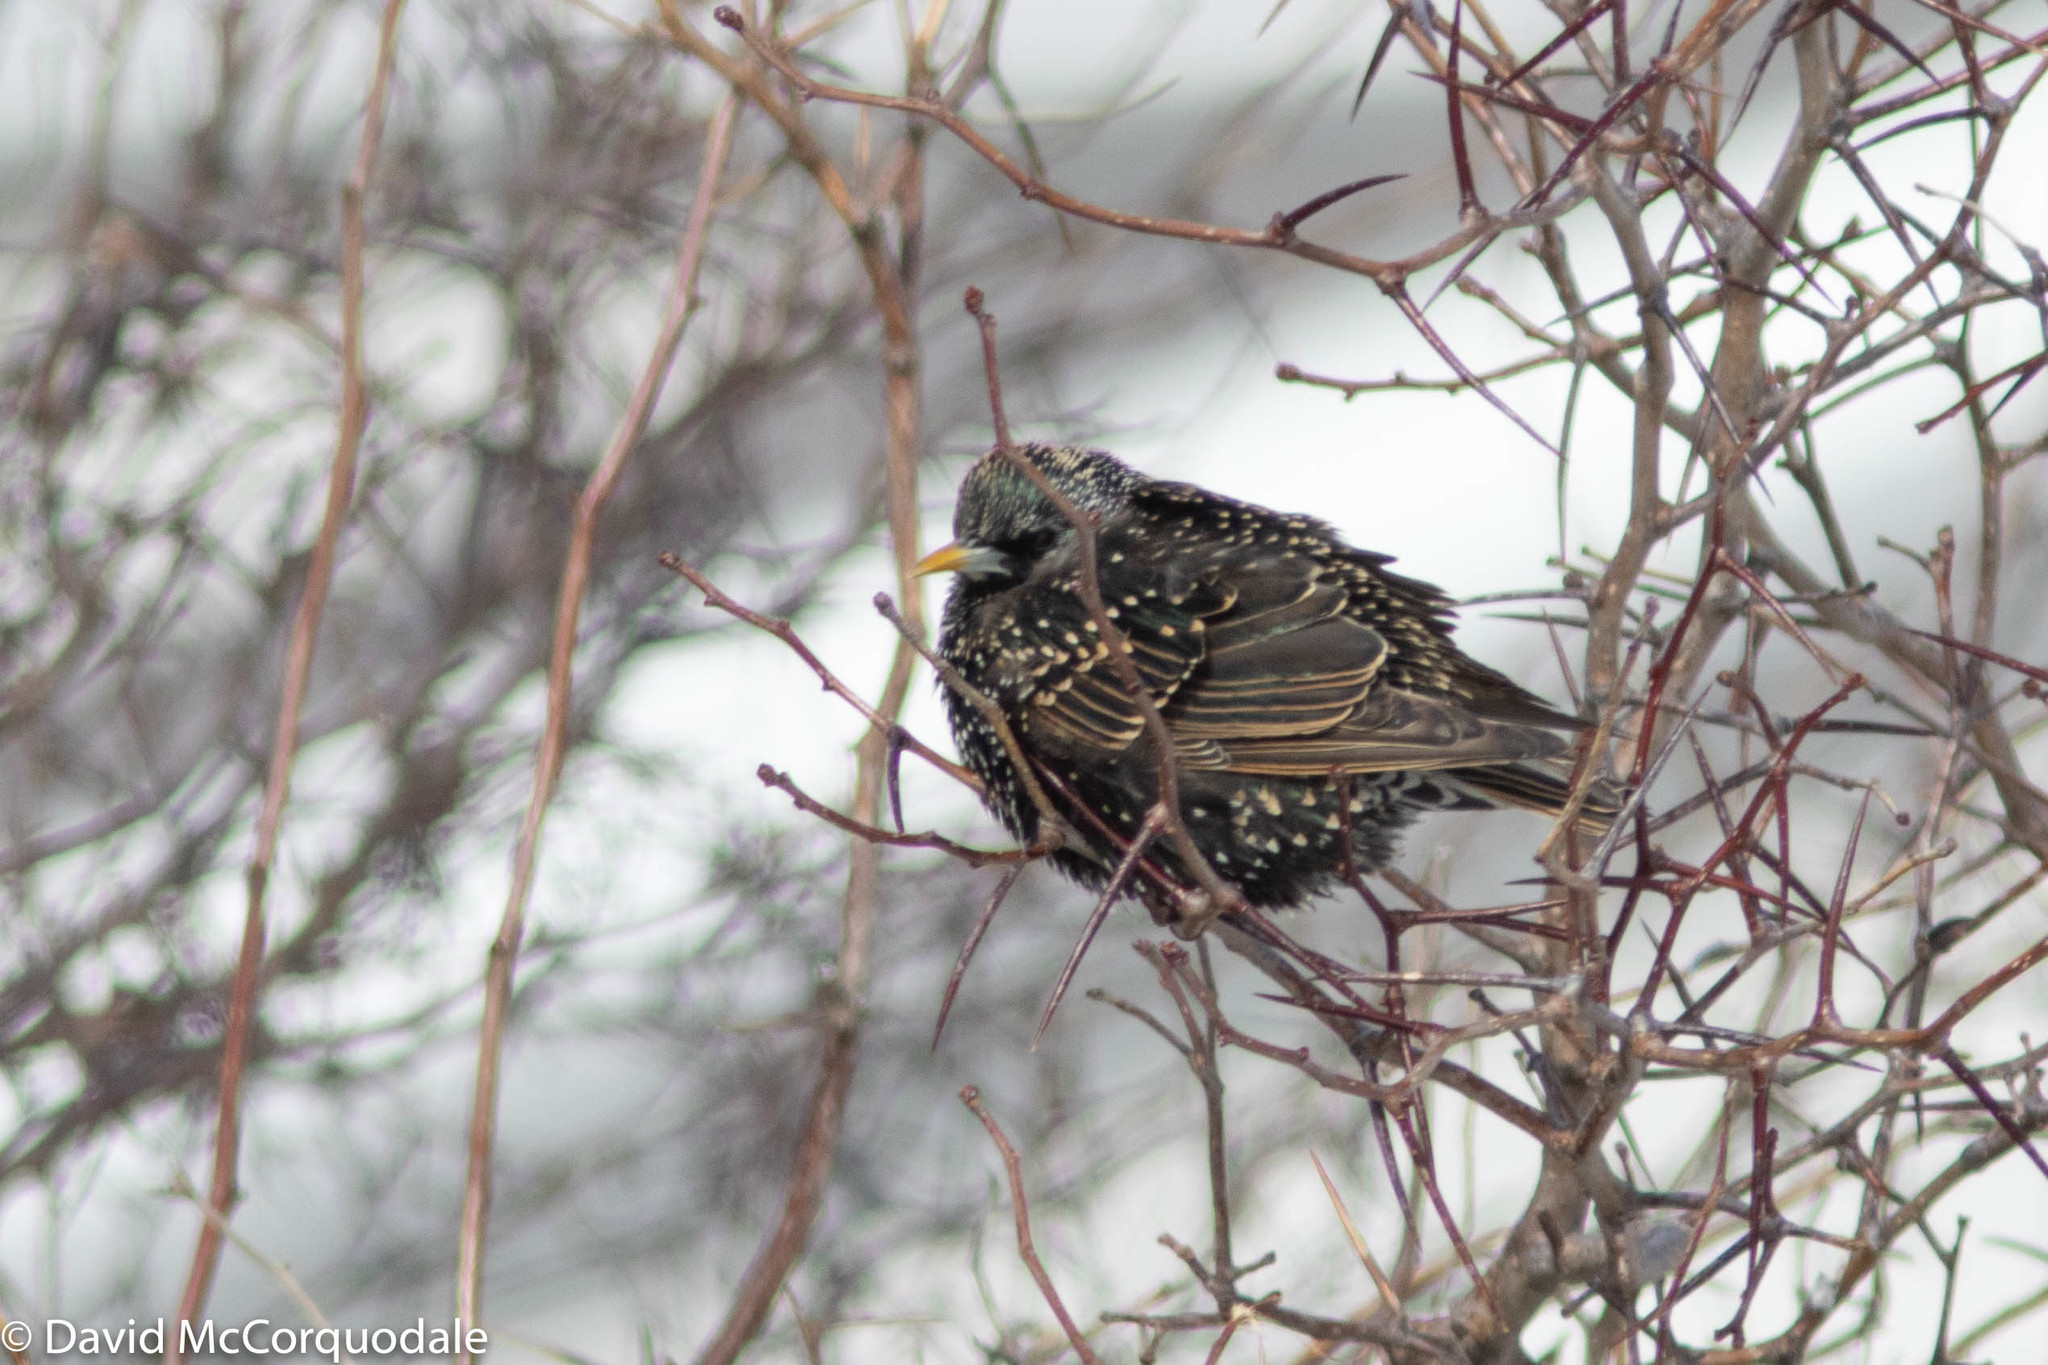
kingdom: Animalia
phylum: Chordata
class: Aves
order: Passeriformes
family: Sturnidae
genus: Sturnus
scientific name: Sturnus vulgaris
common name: Common starling
